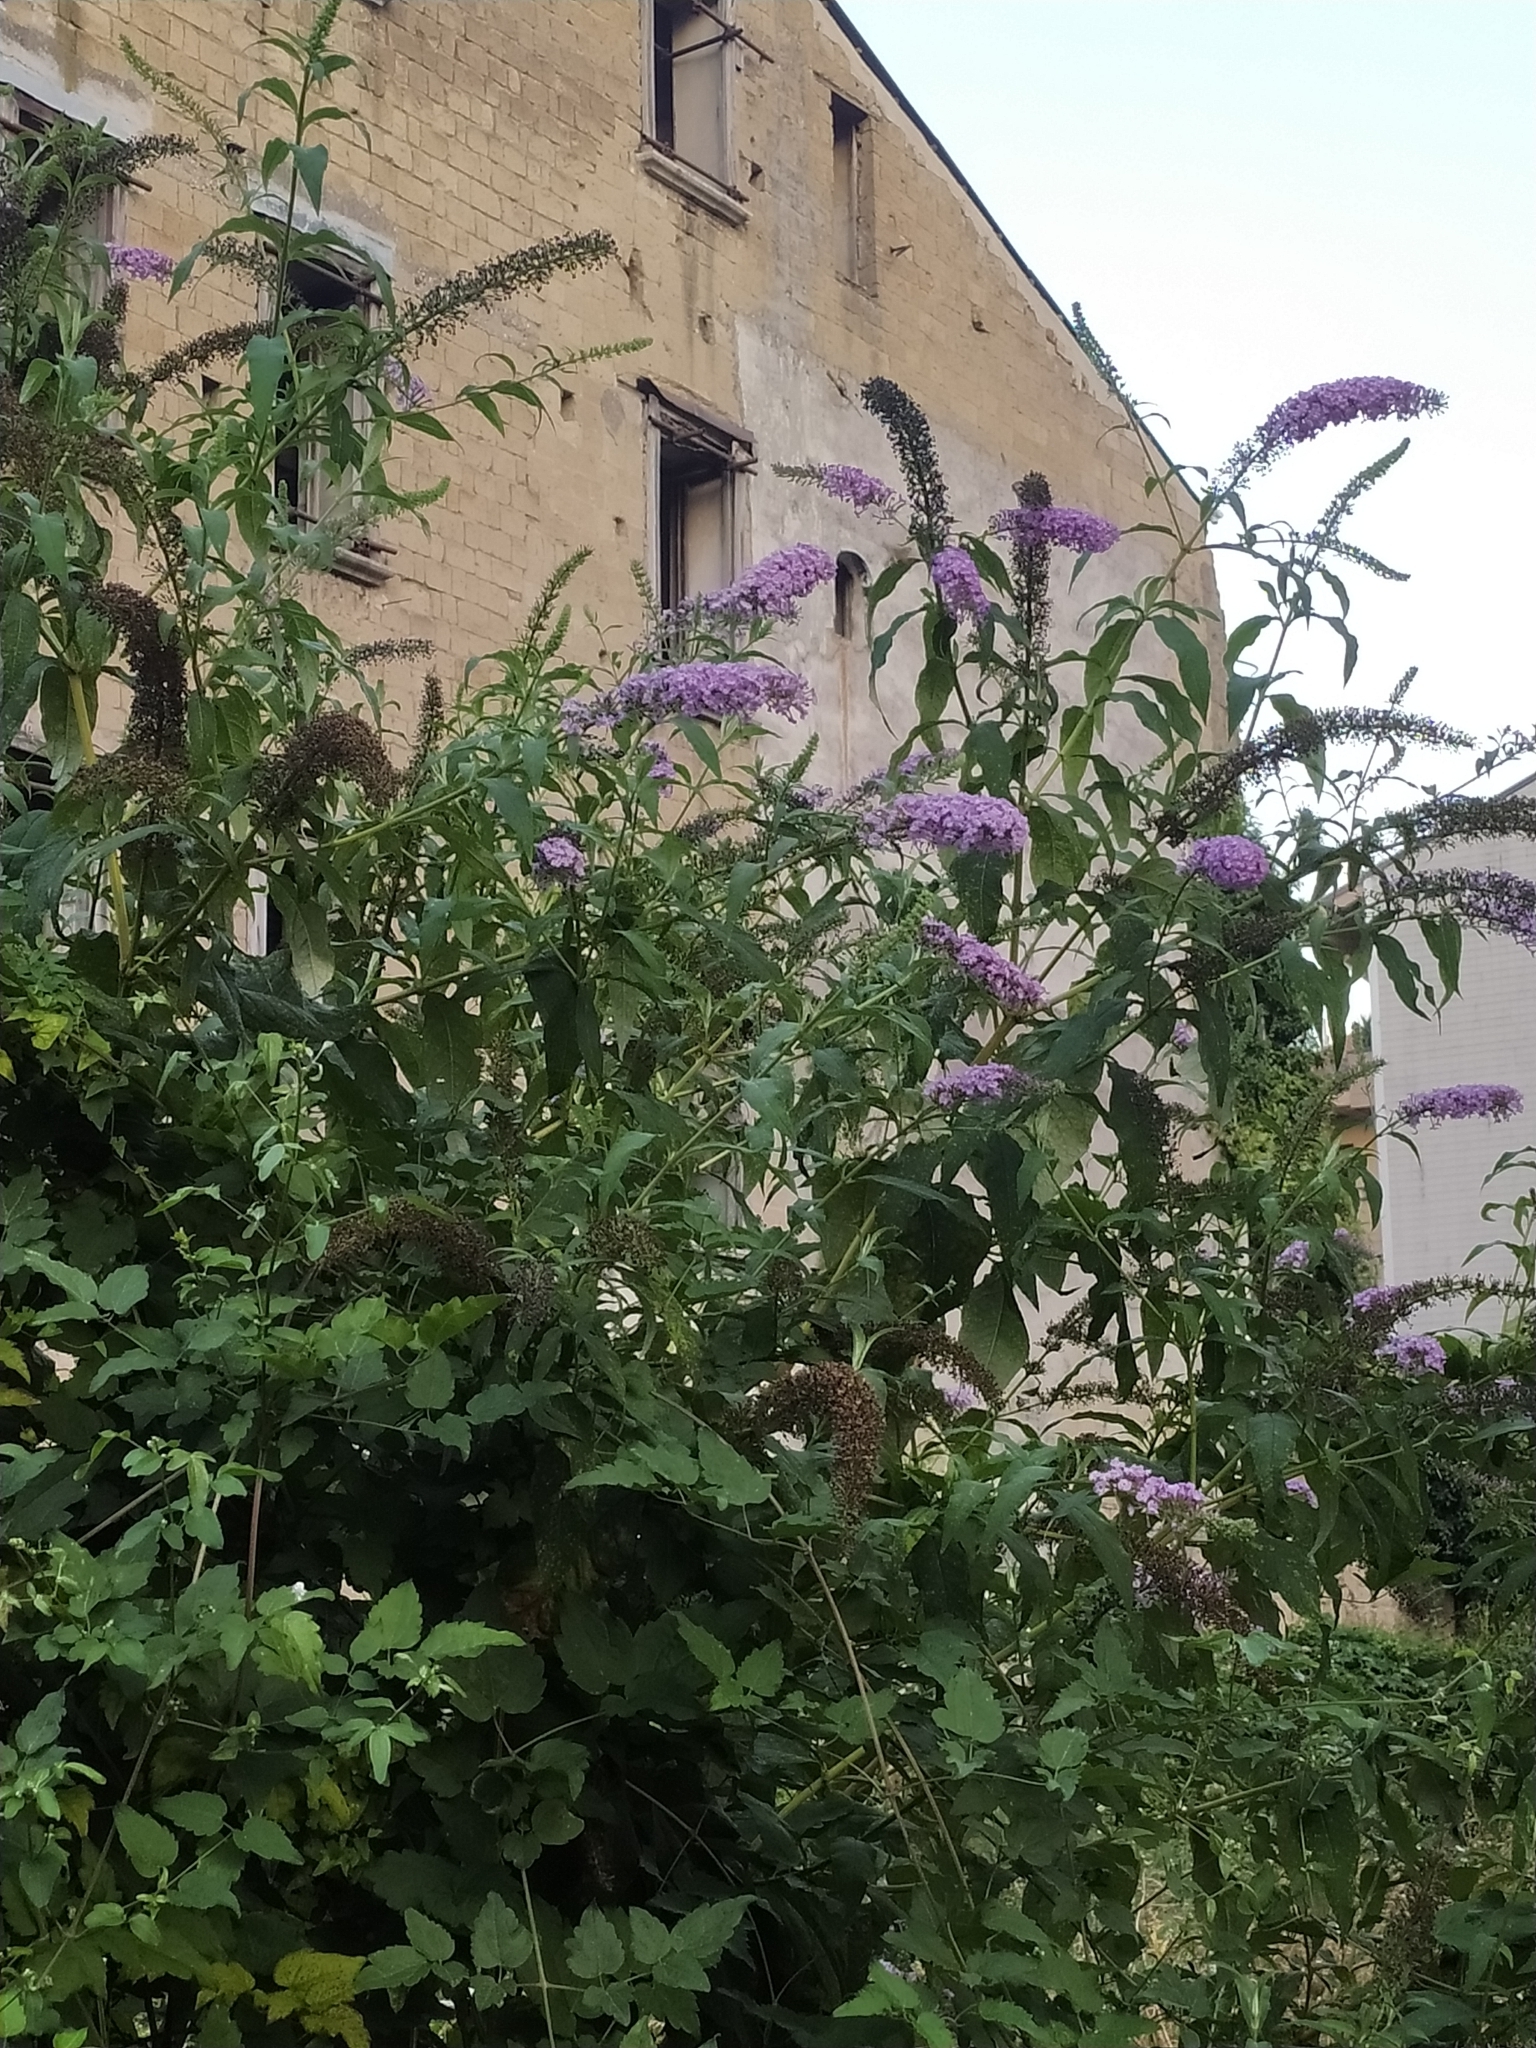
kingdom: Plantae
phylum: Tracheophyta
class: Magnoliopsida
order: Lamiales
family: Scrophulariaceae
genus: Buddleja
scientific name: Buddleja davidii
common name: Butterfly-bush
